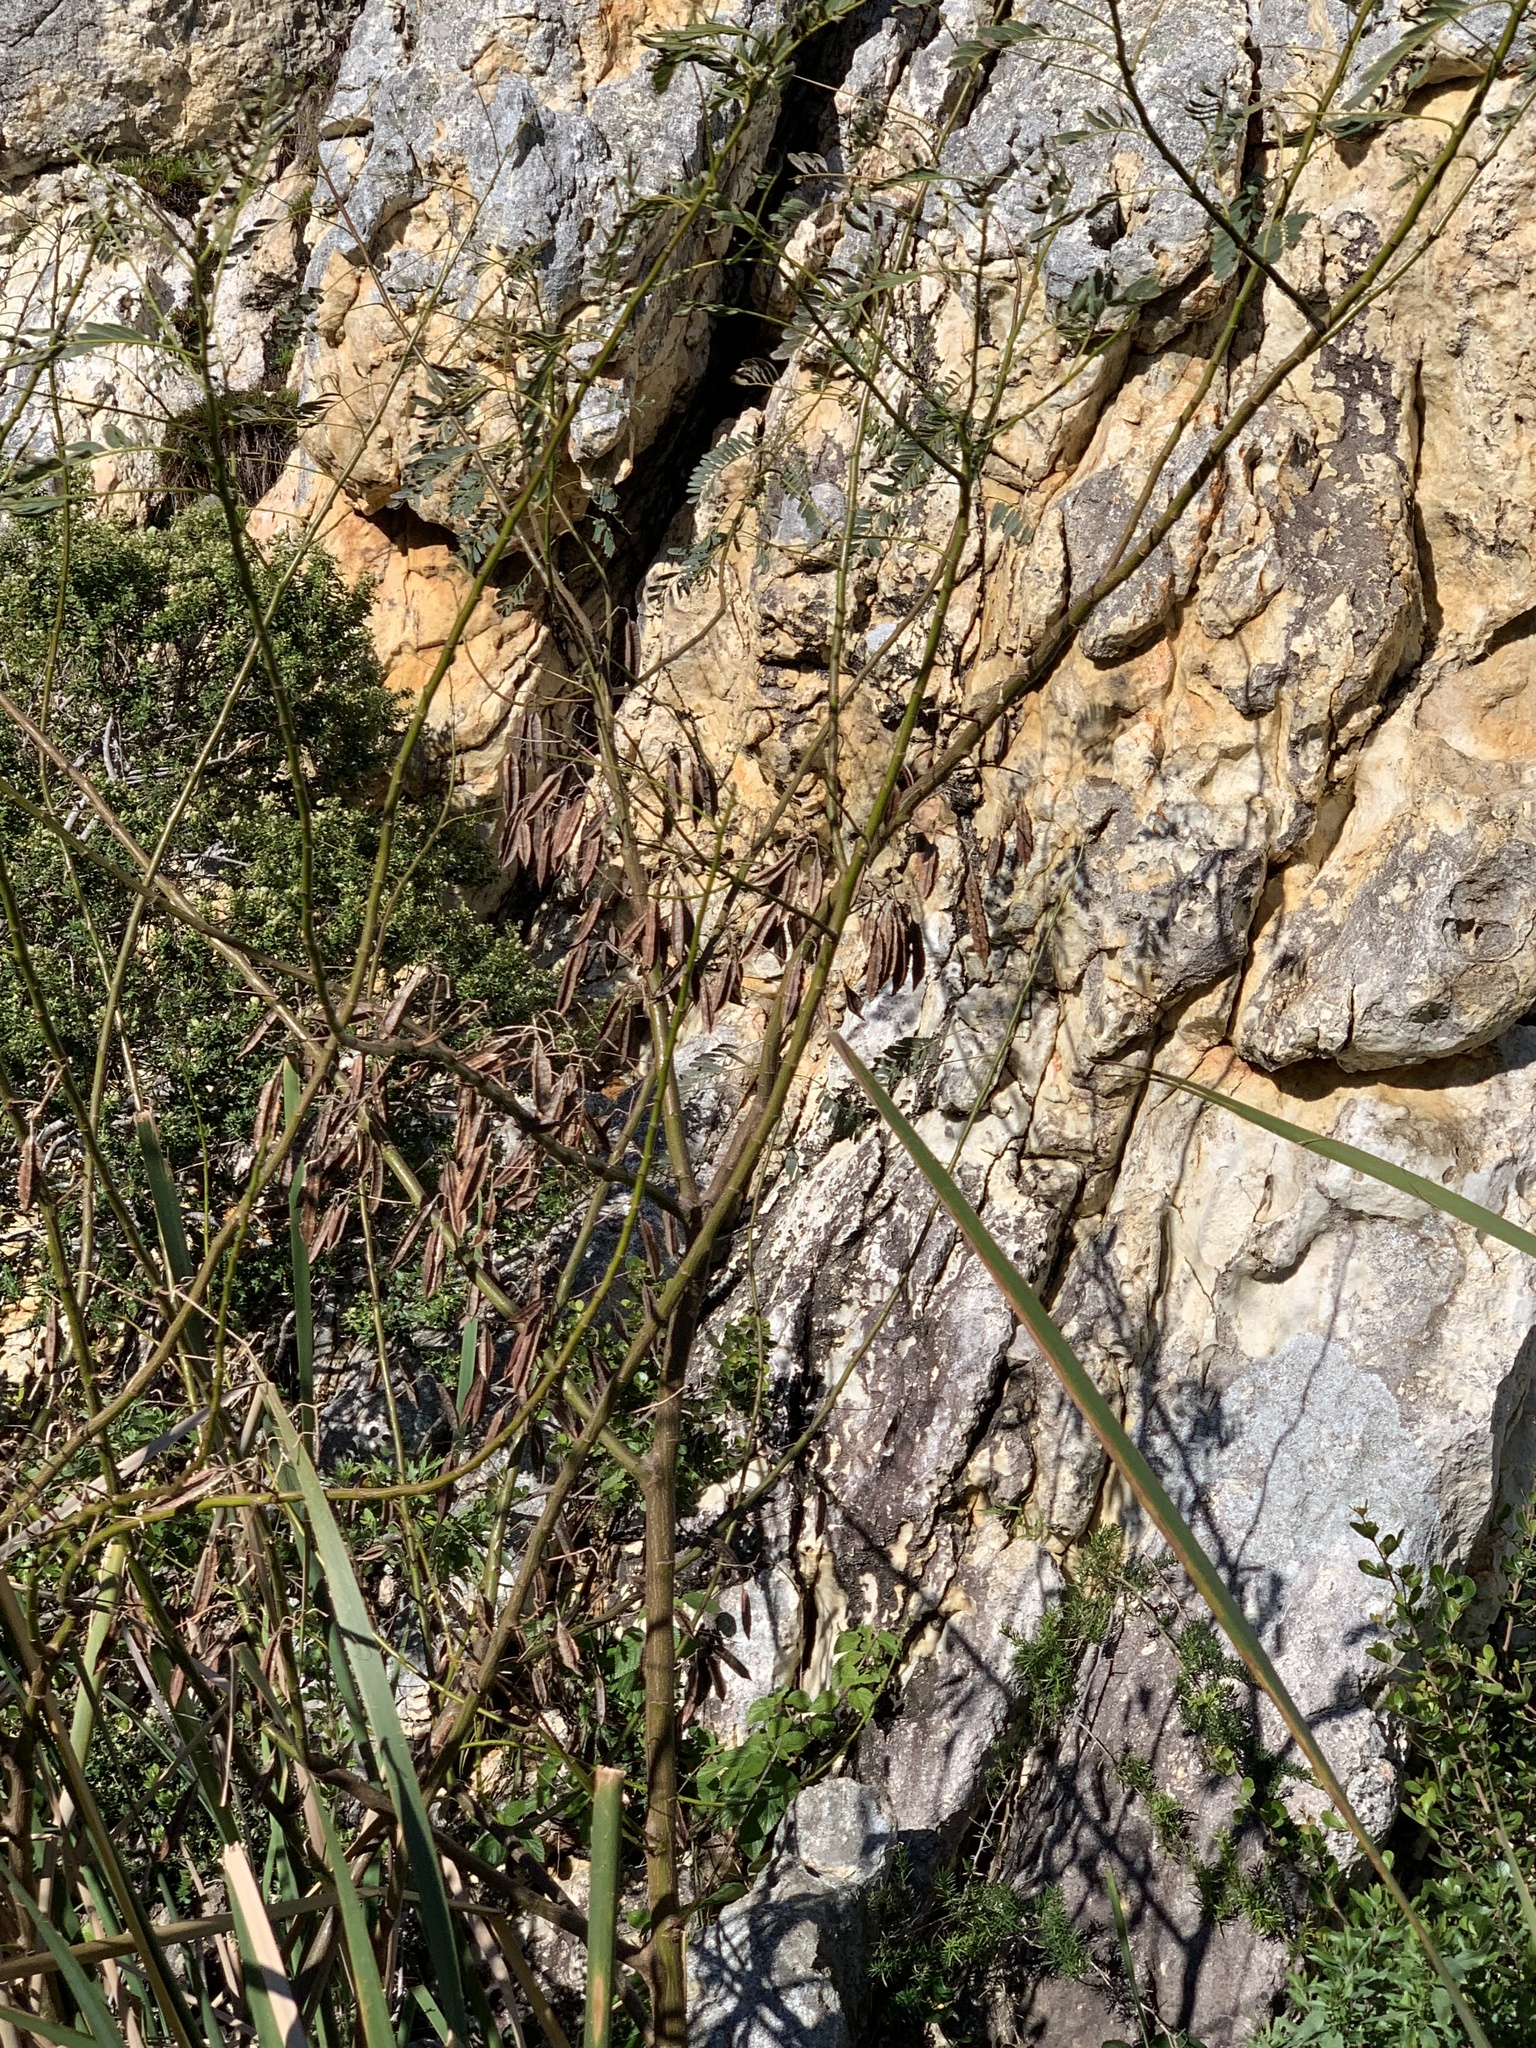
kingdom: Plantae
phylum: Tracheophyta
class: Magnoliopsida
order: Fabales
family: Fabaceae
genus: Sesbania
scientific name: Sesbania punicea
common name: Rattlebox
